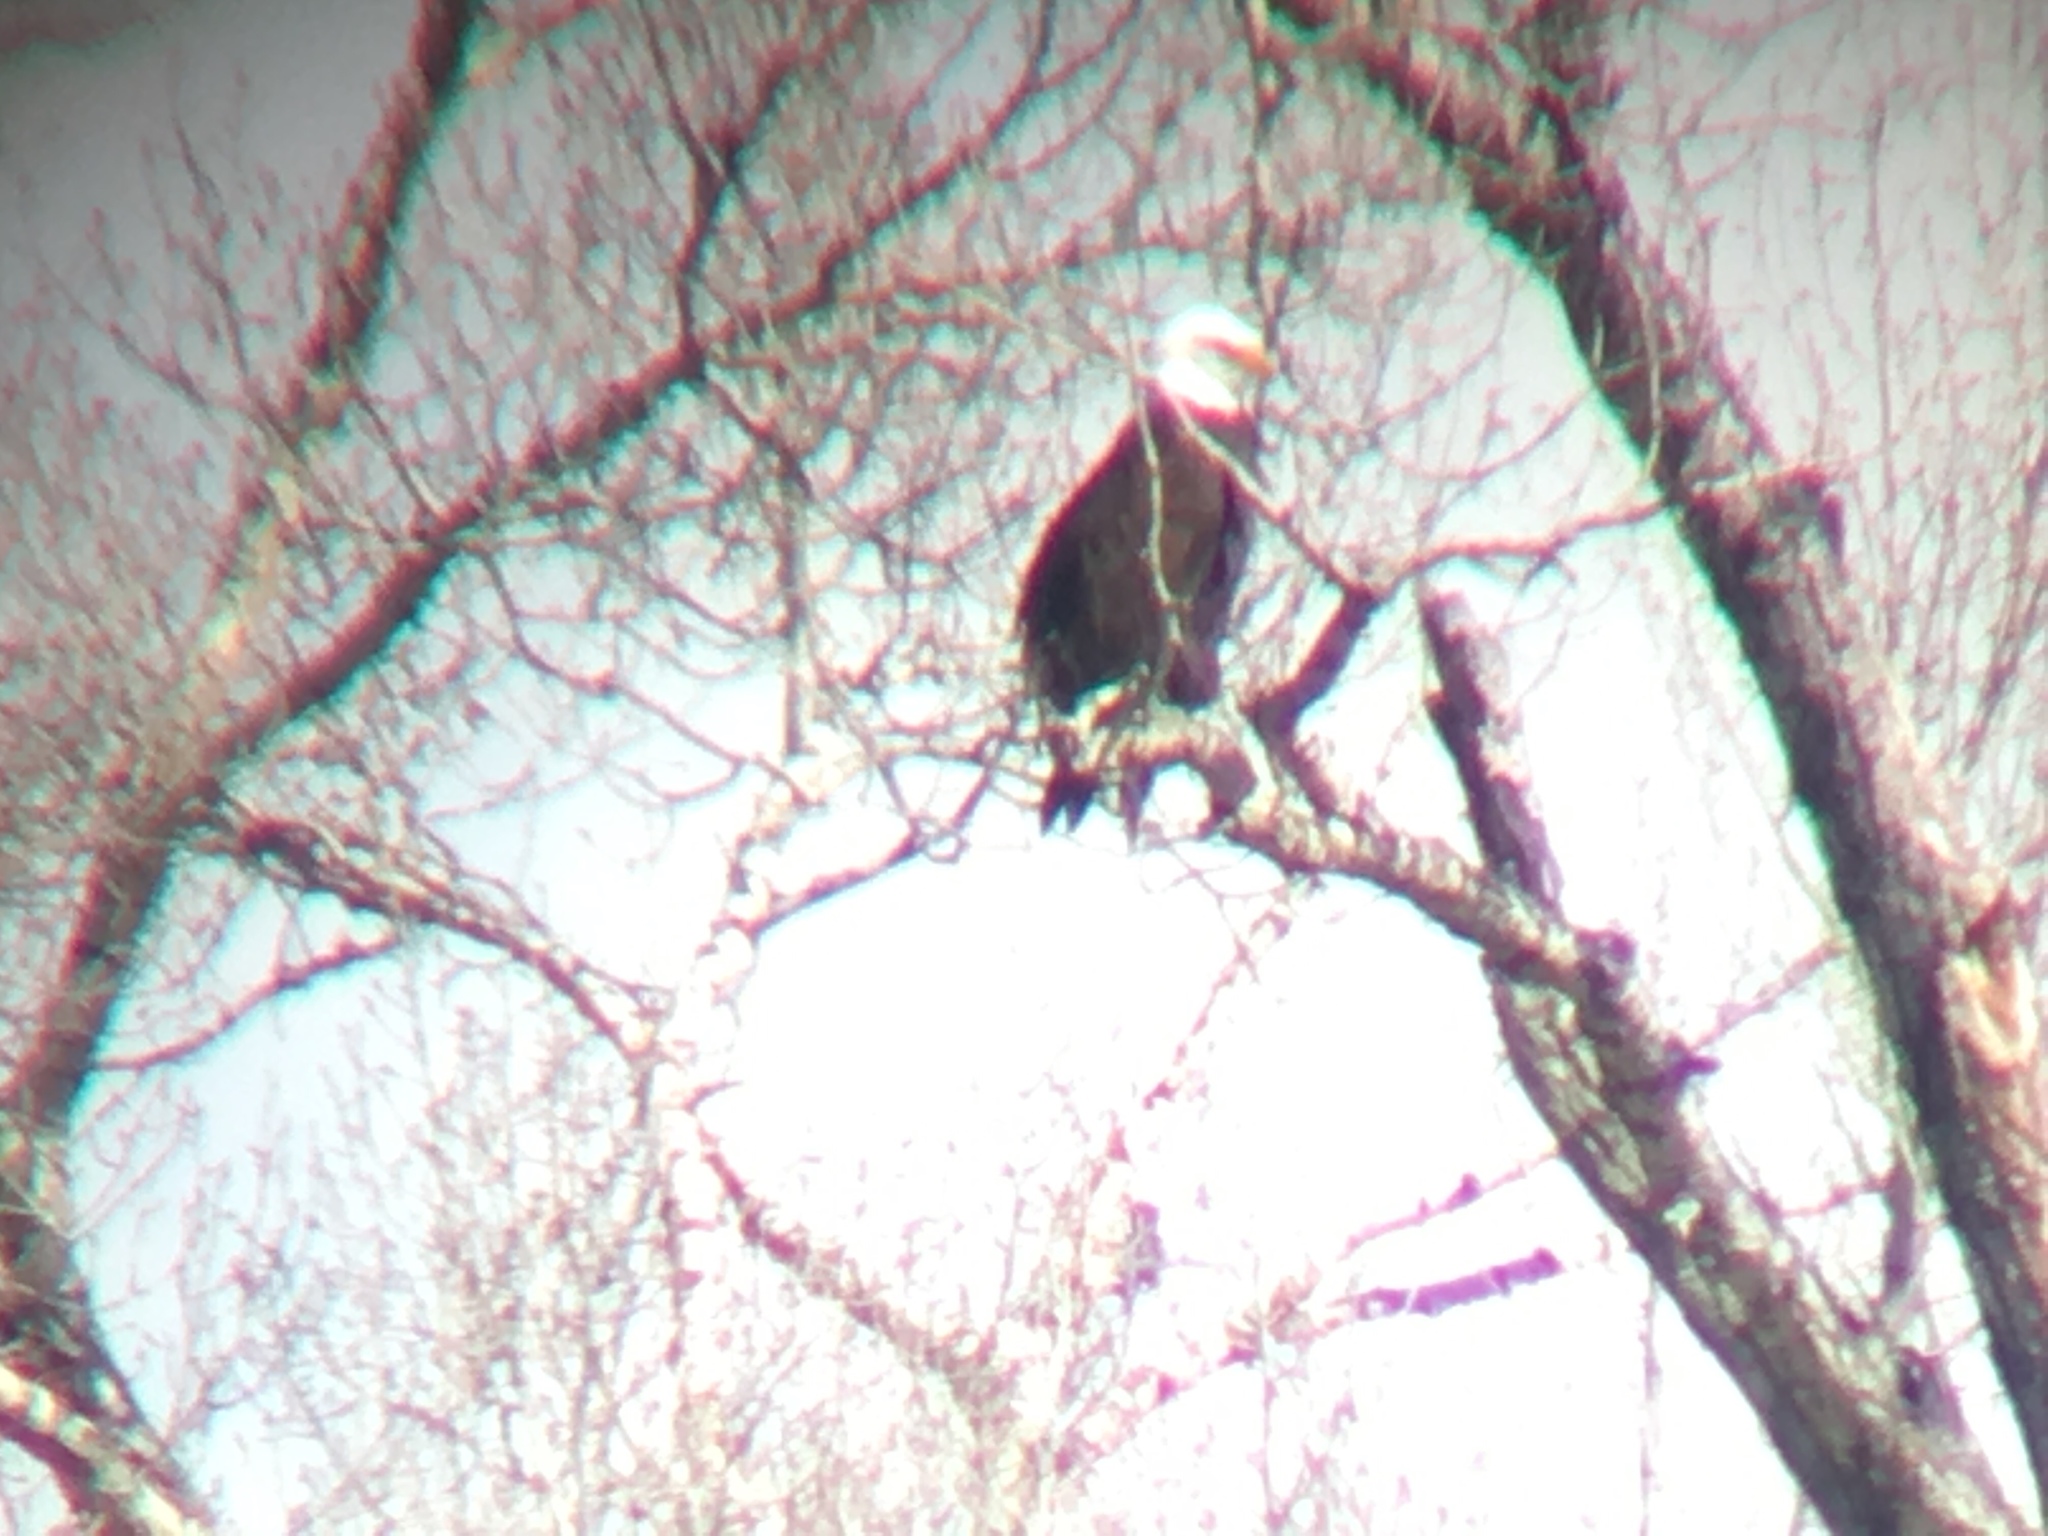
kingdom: Animalia
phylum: Chordata
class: Aves
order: Accipitriformes
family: Accipitridae
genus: Haliaeetus
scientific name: Haliaeetus leucocephalus
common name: Bald eagle
